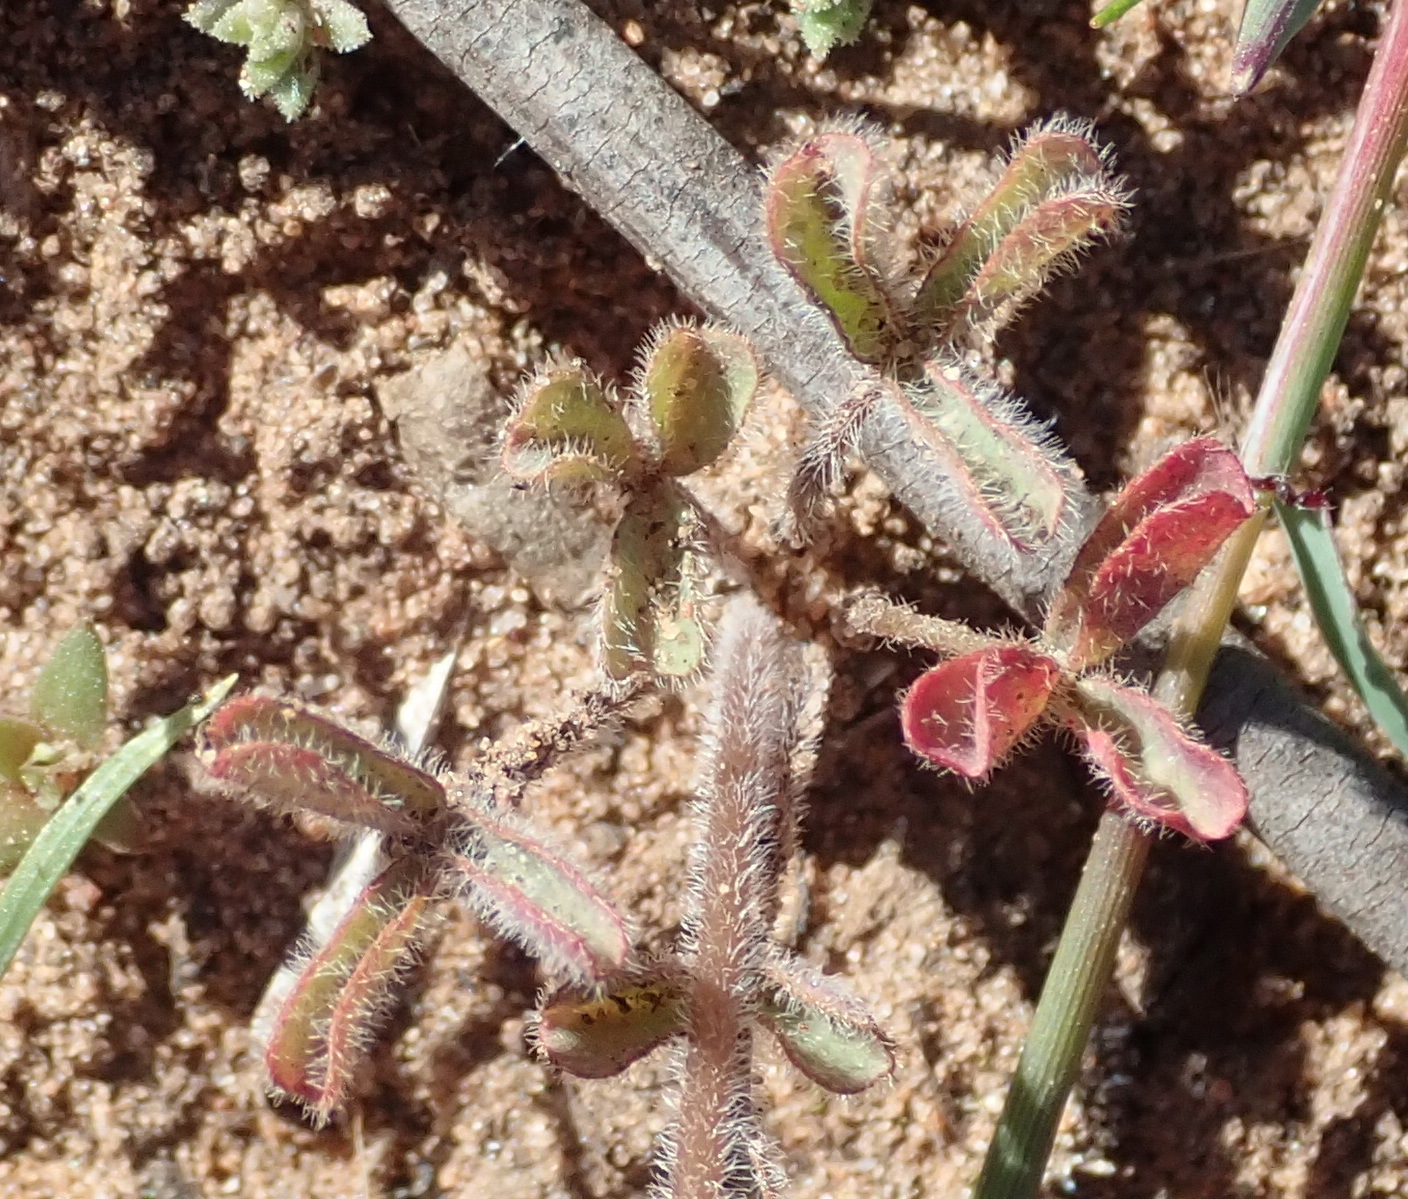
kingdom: Plantae
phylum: Tracheophyta
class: Magnoliopsida
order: Oxalidales
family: Oxalidaceae
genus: Oxalis
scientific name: Oxalis obtusa
